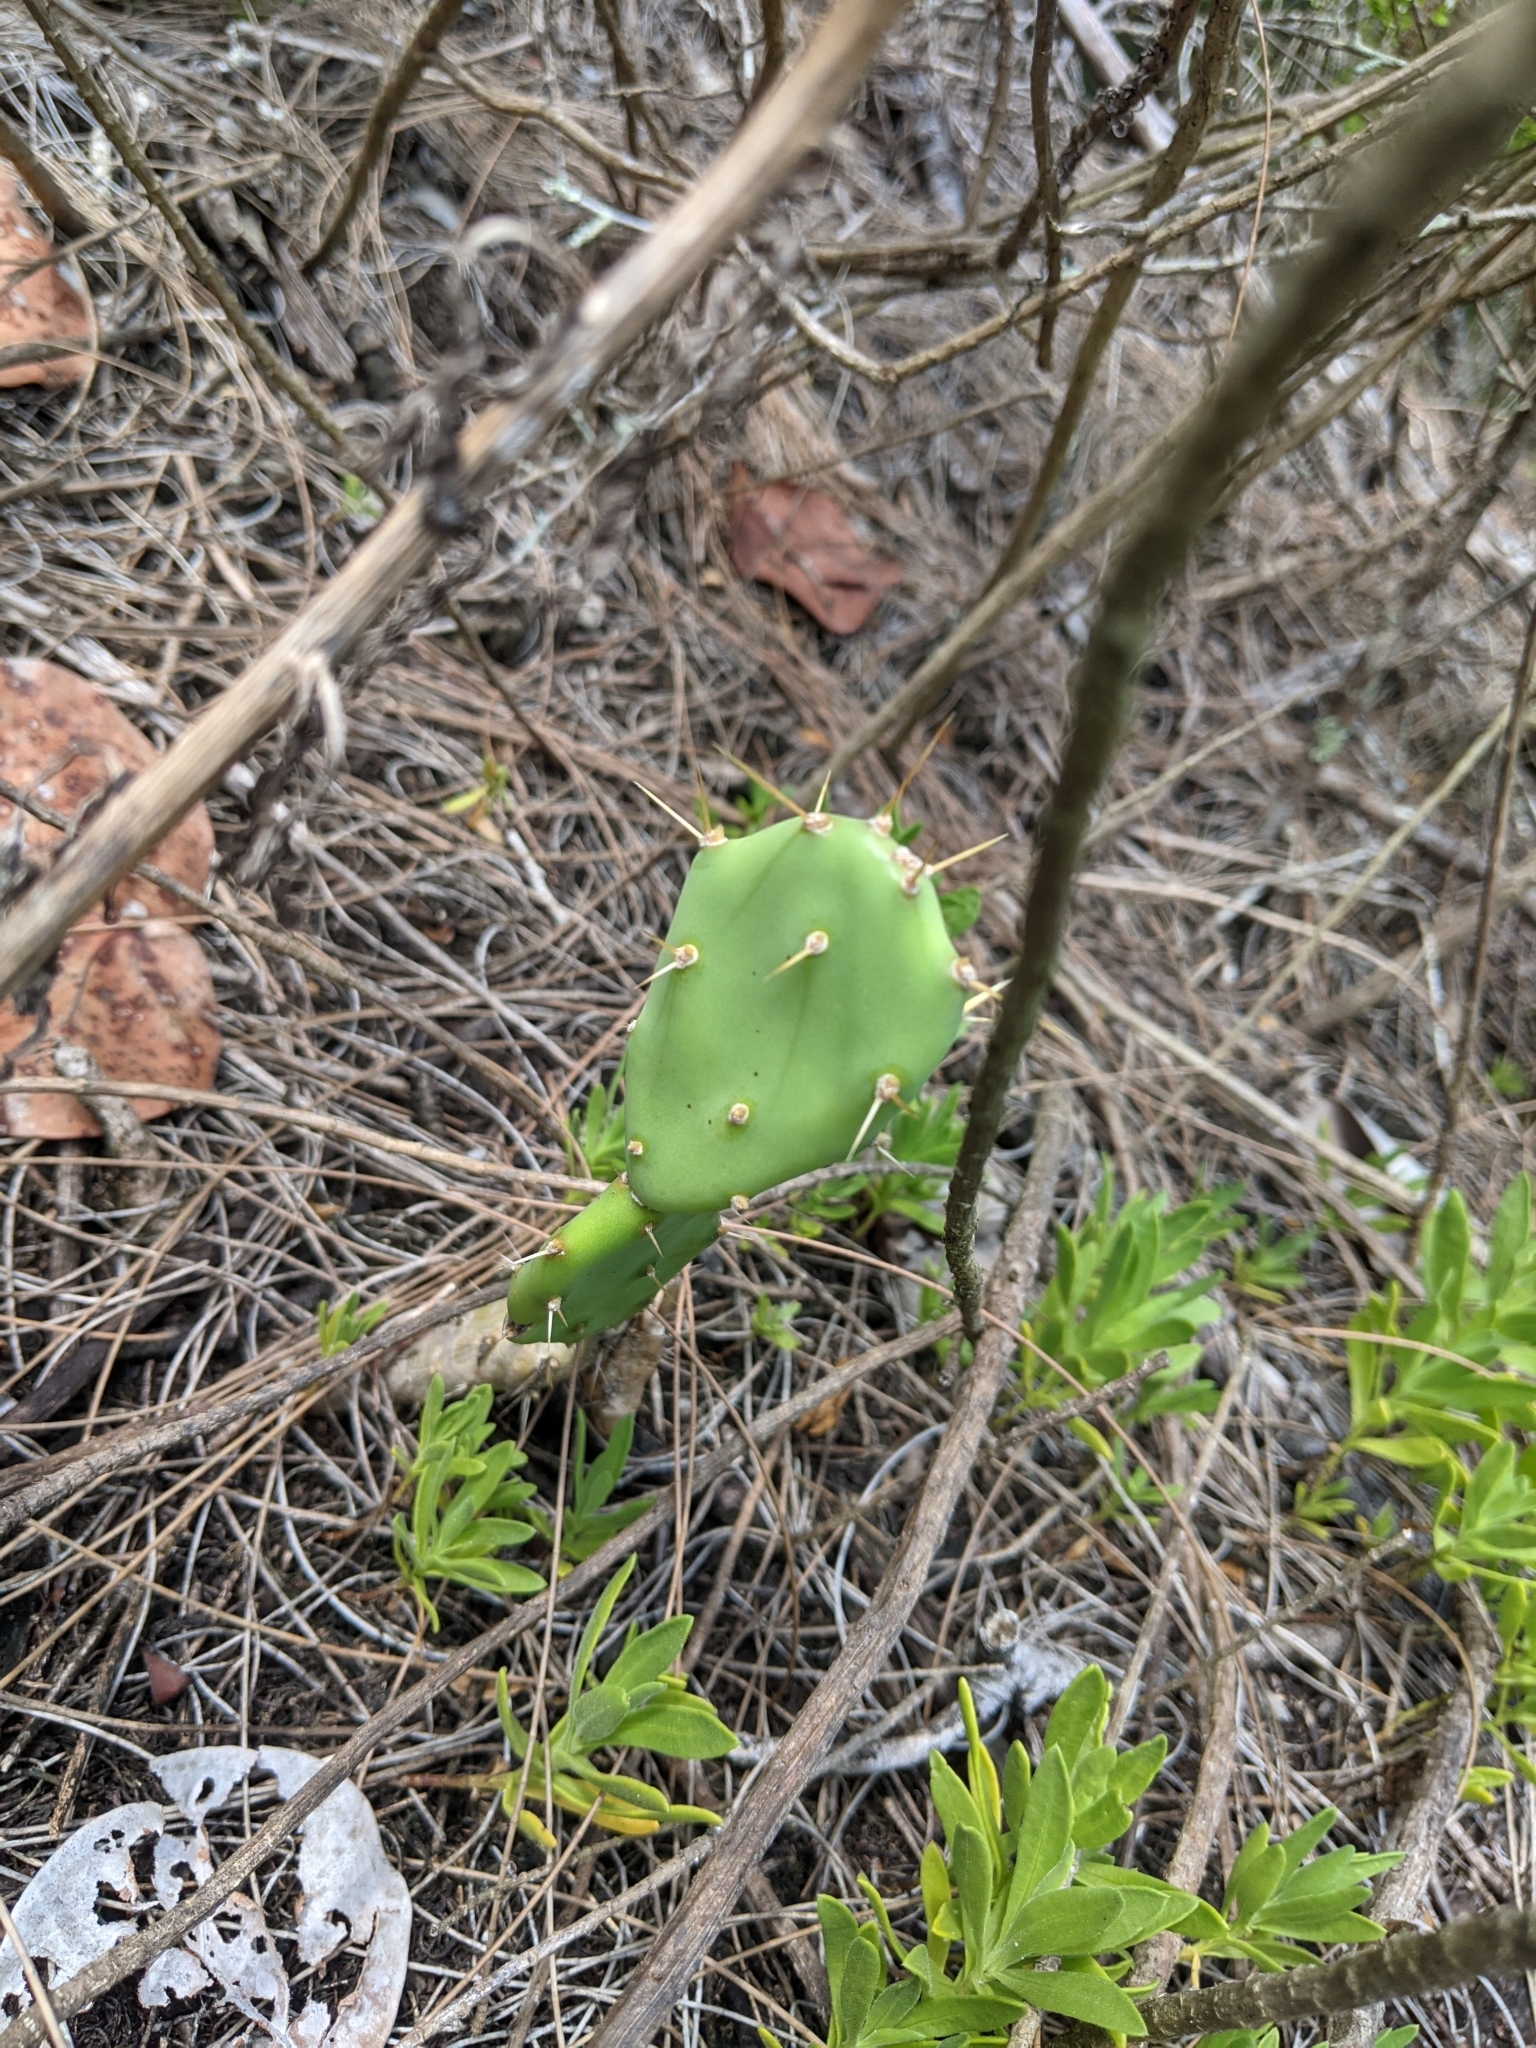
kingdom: Plantae
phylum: Tracheophyta
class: Magnoliopsida
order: Caryophyllales
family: Cactaceae
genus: Opuntia
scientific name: Opuntia stricta
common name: Erect pricklypear
